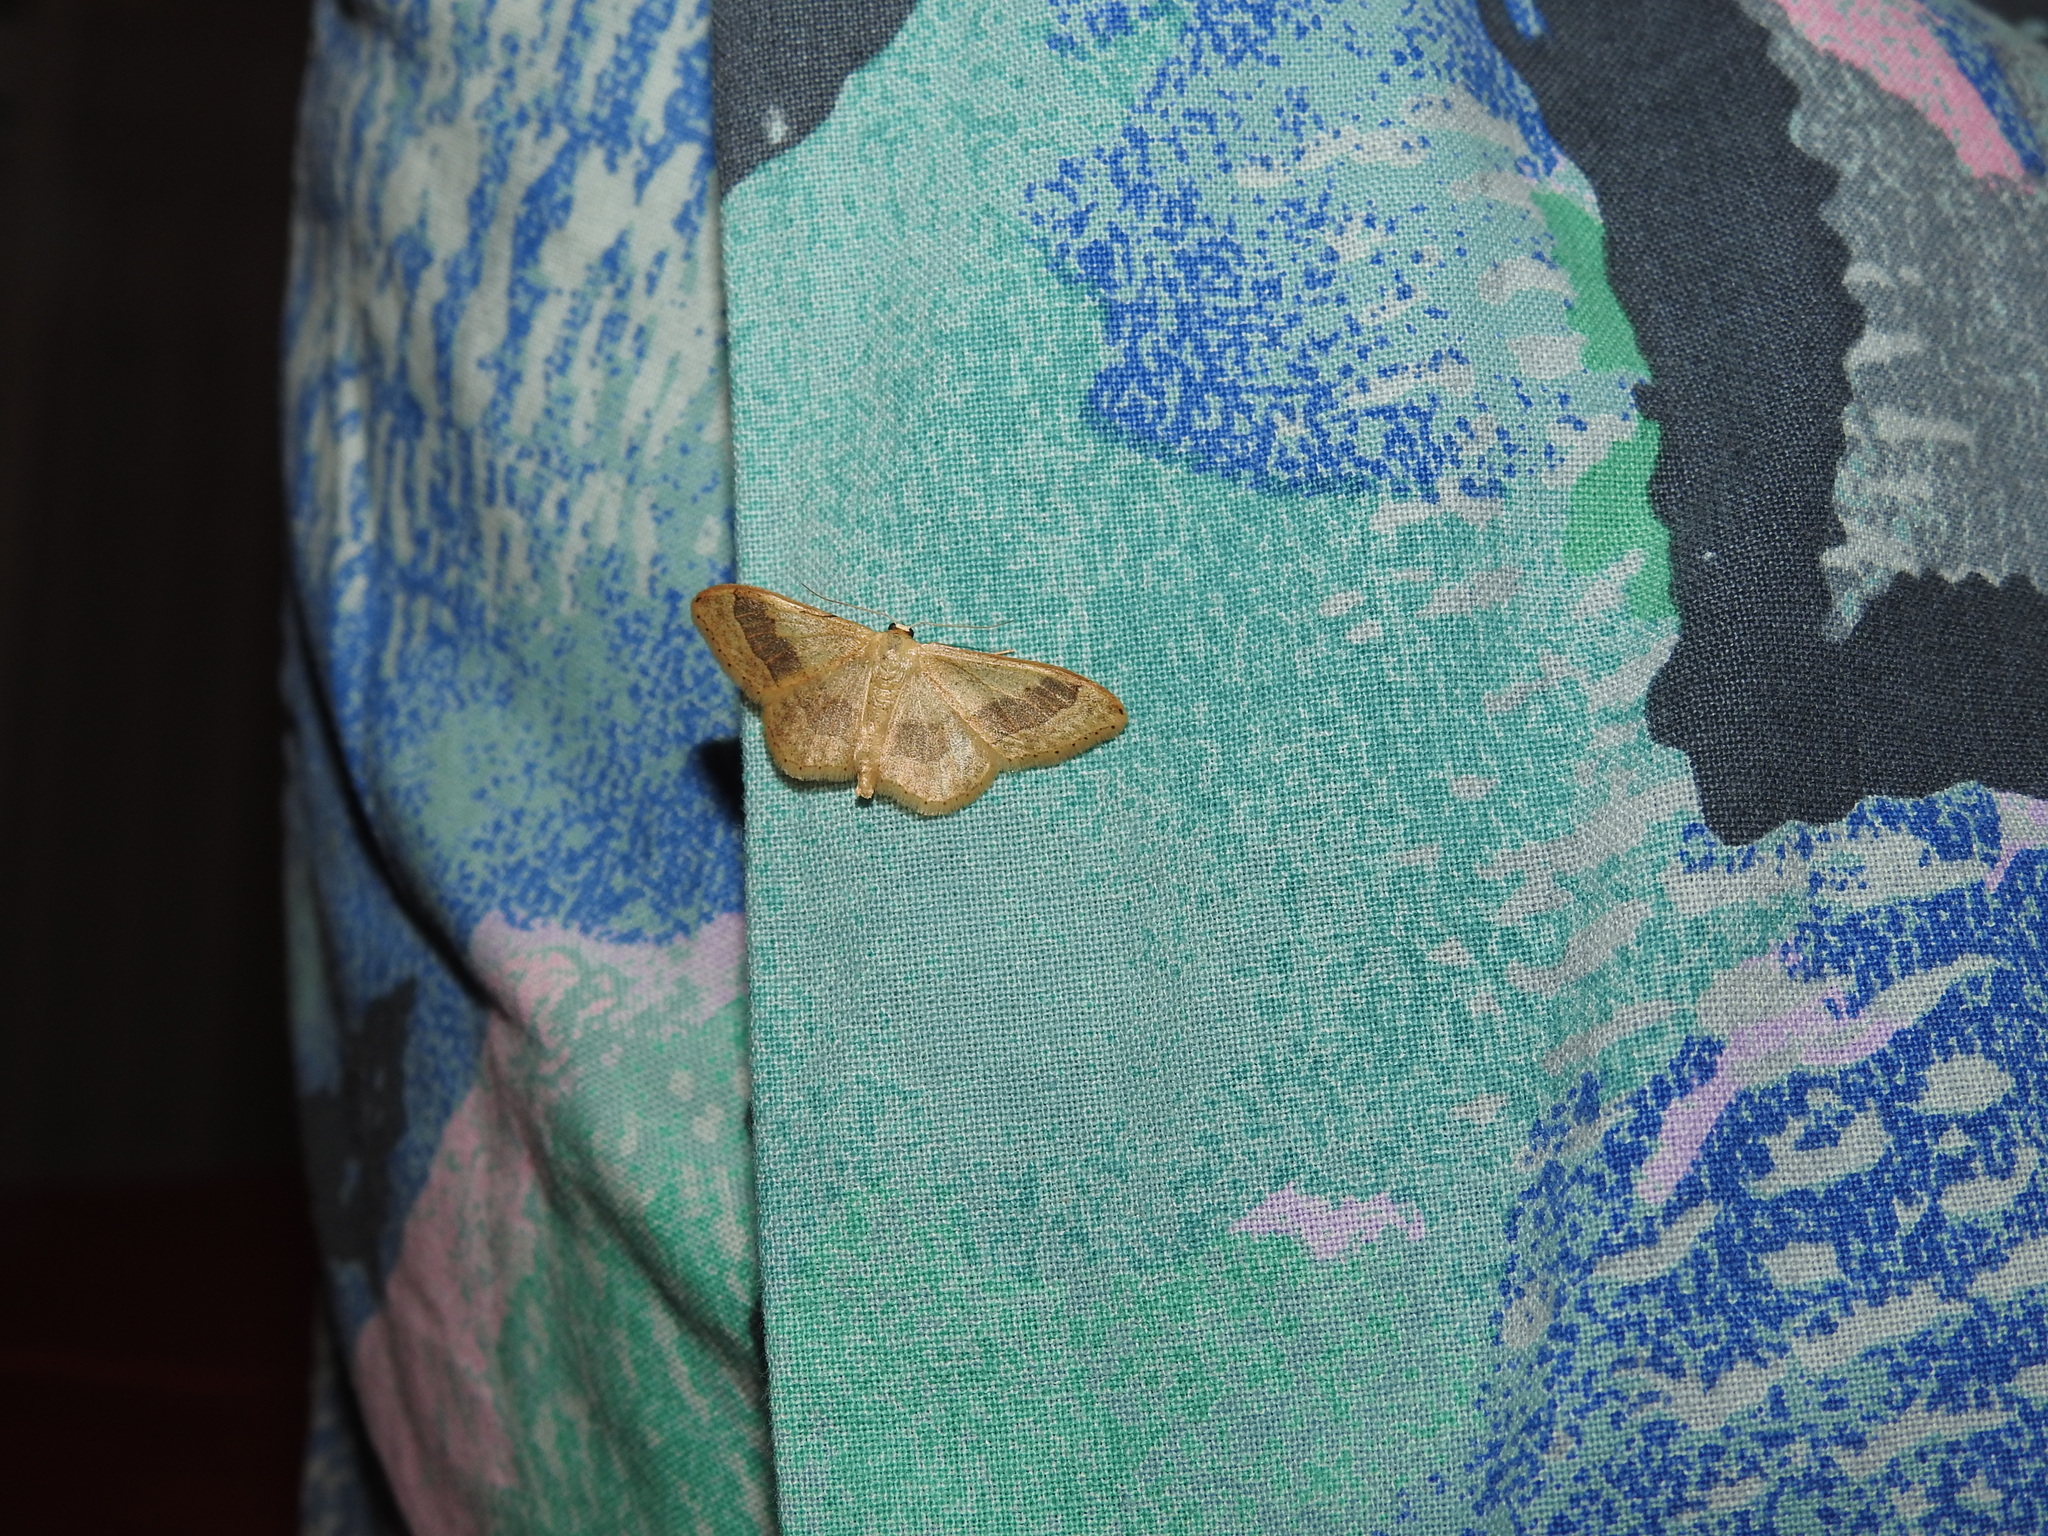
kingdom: Animalia
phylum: Arthropoda
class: Insecta
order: Lepidoptera
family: Geometridae
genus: Idaea
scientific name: Idaea aversata
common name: Riband wave
